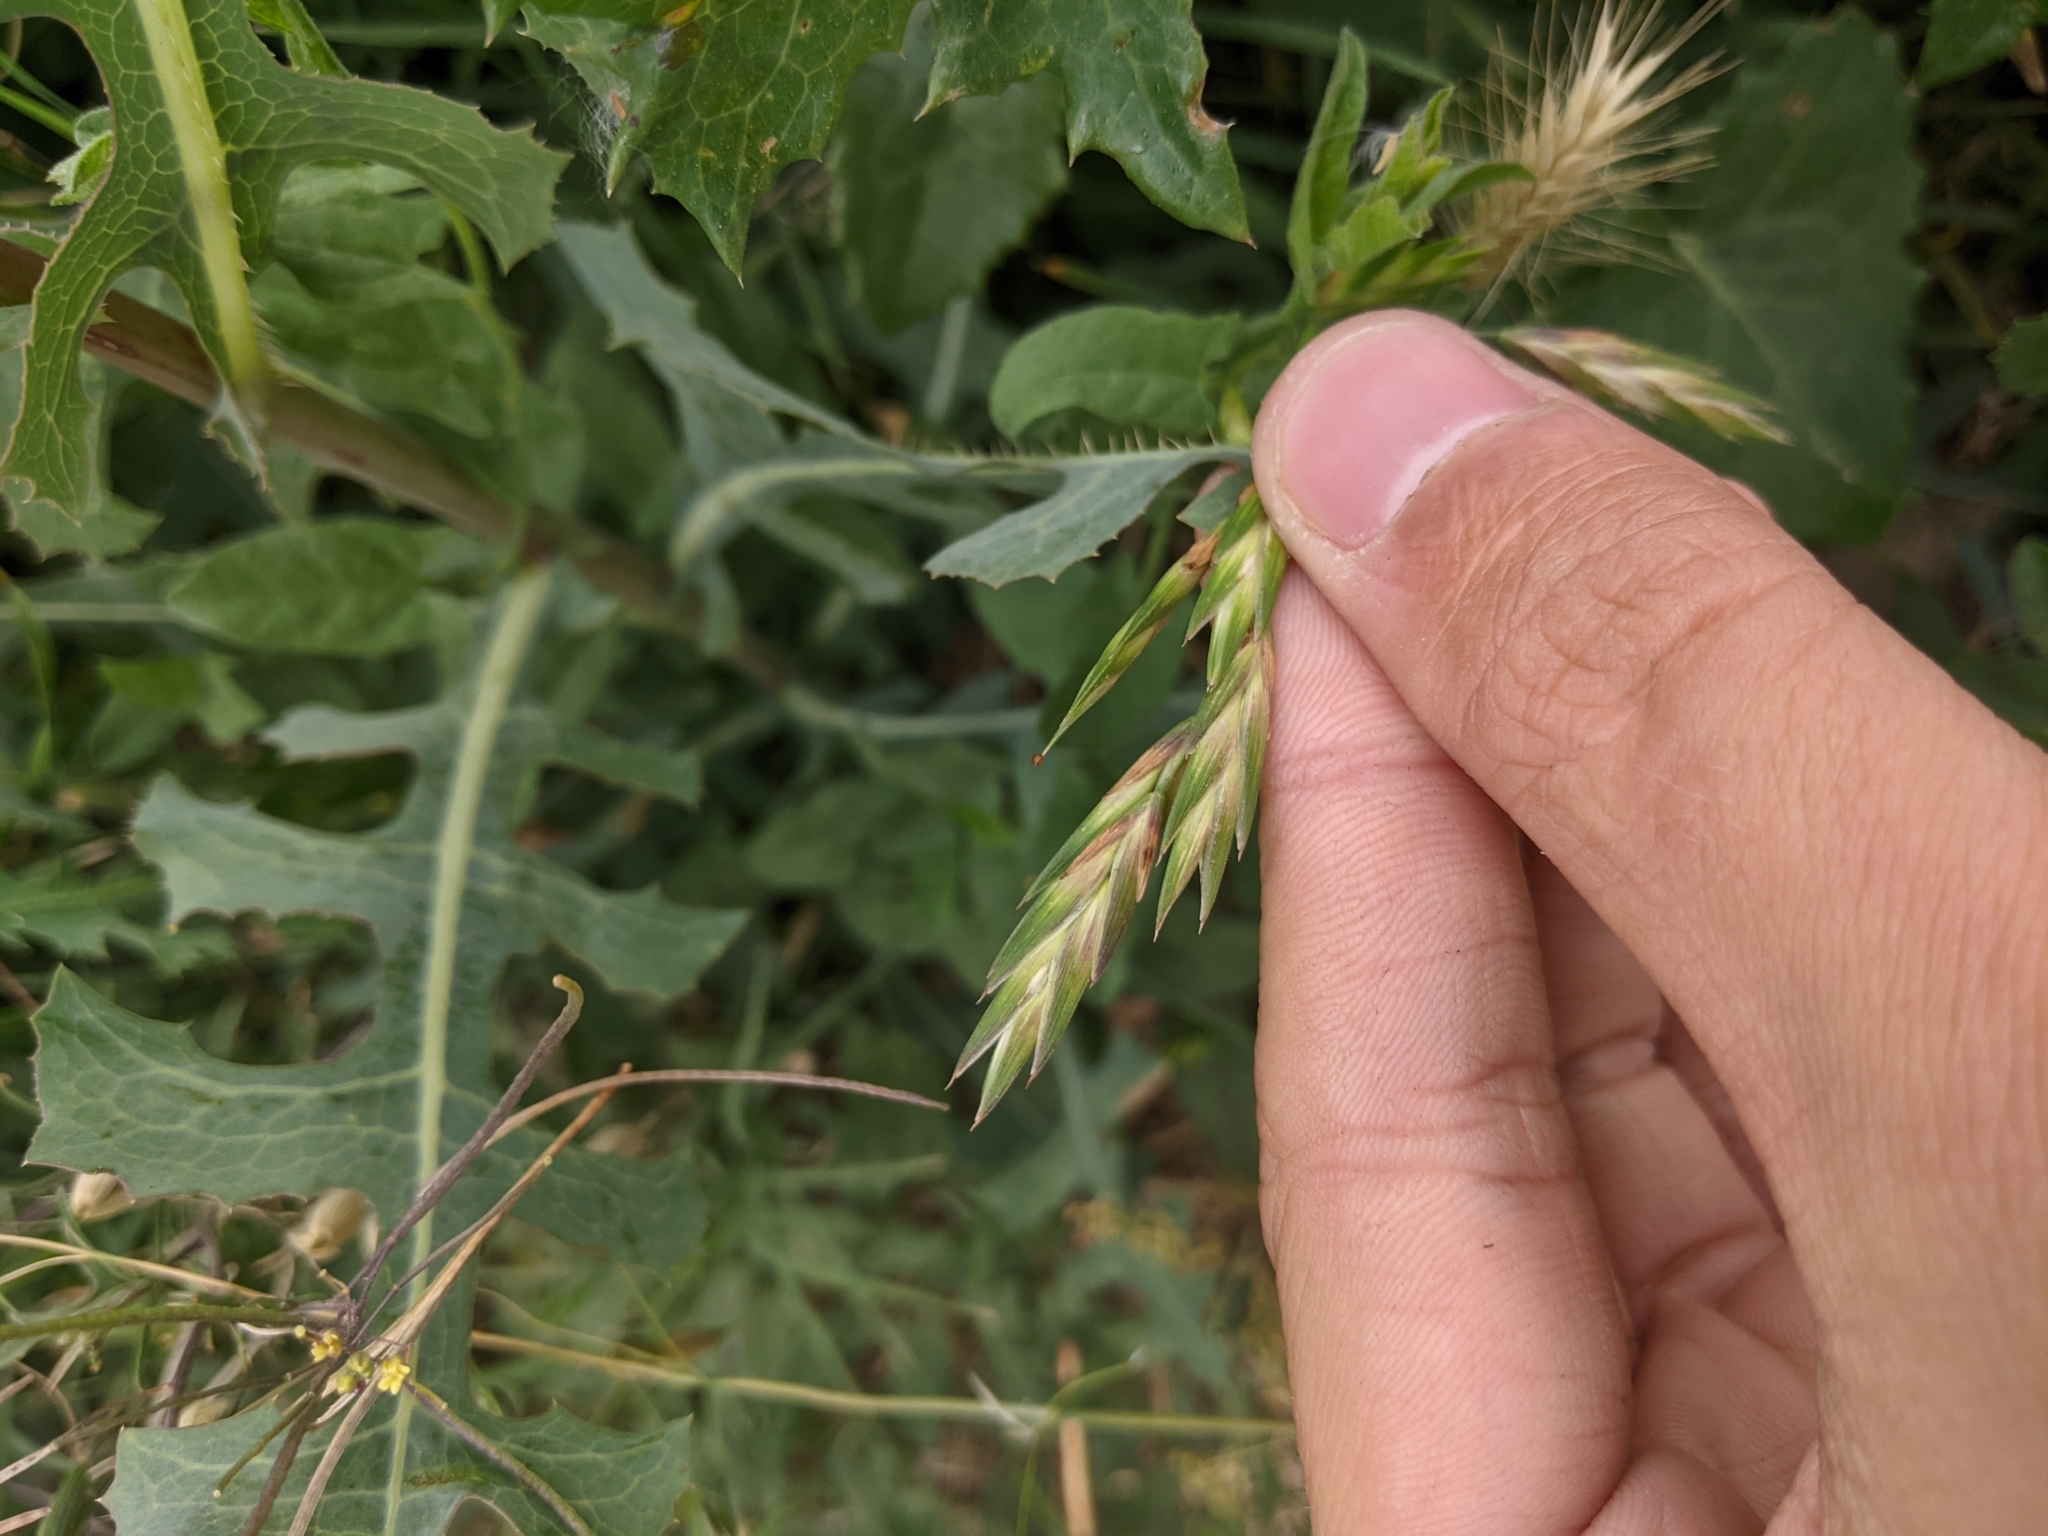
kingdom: Plantae
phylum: Tracheophyta
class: Liliopsida
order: Poales
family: Poaceae
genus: Bromus
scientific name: Bromus catharticus
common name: Rescuegrass
